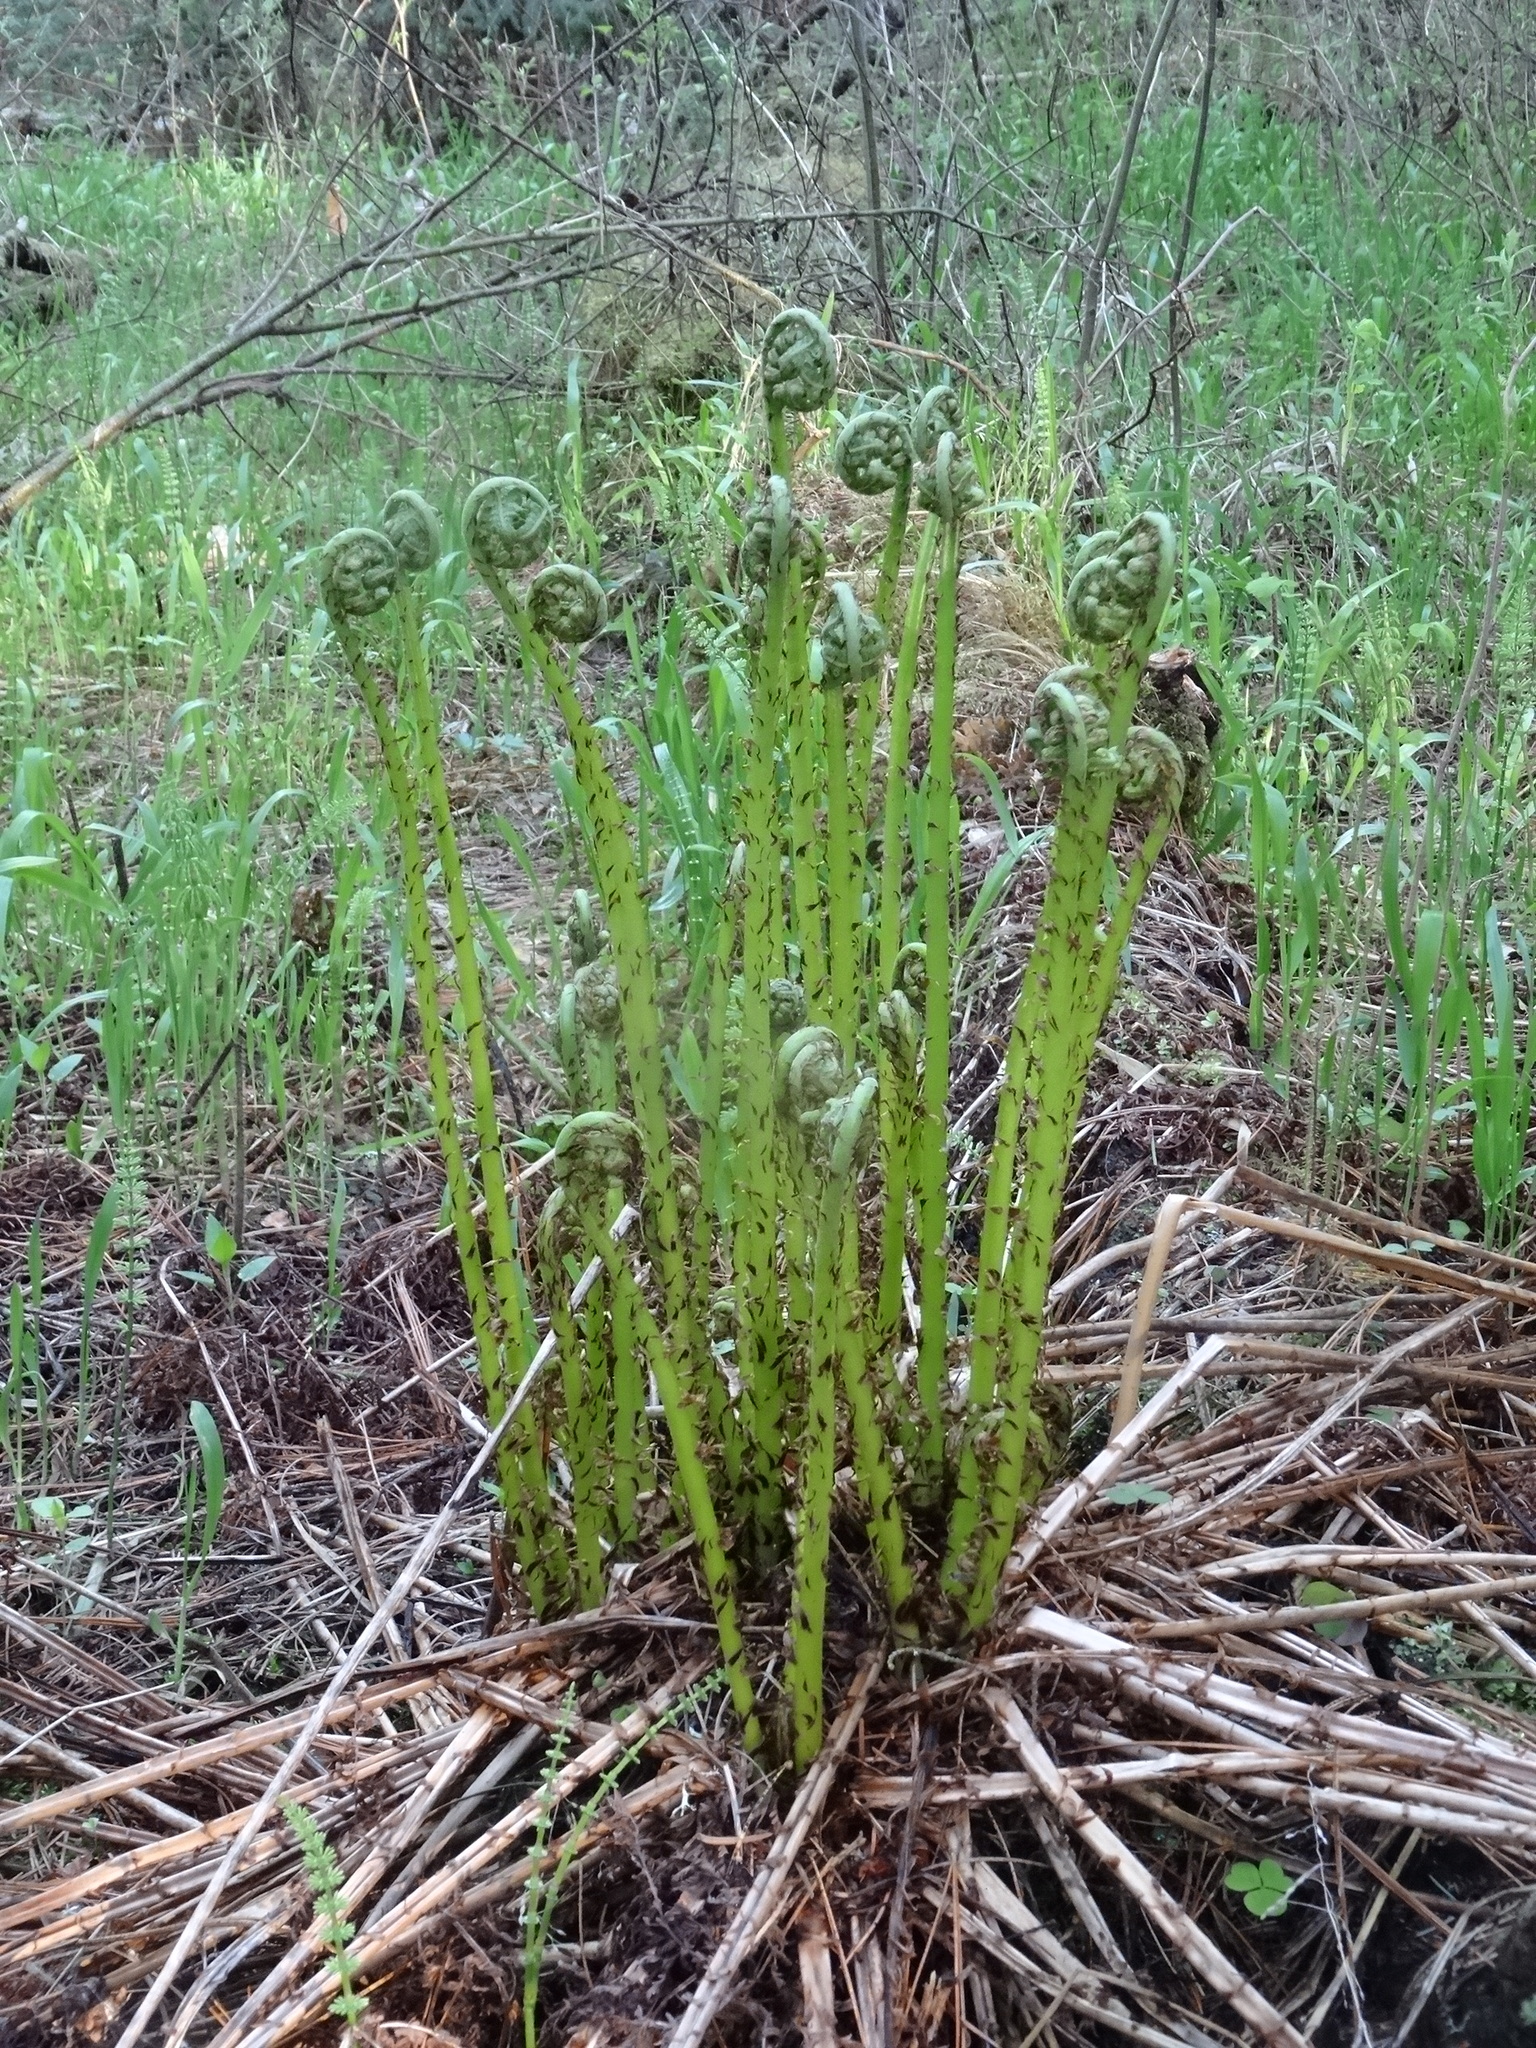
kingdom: Plantae
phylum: Tracheophyta
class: Polypodiopsida
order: Polypodiales
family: Athyriaceae
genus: Athyrium
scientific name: Athyrium filix-femina
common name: Lady fern
